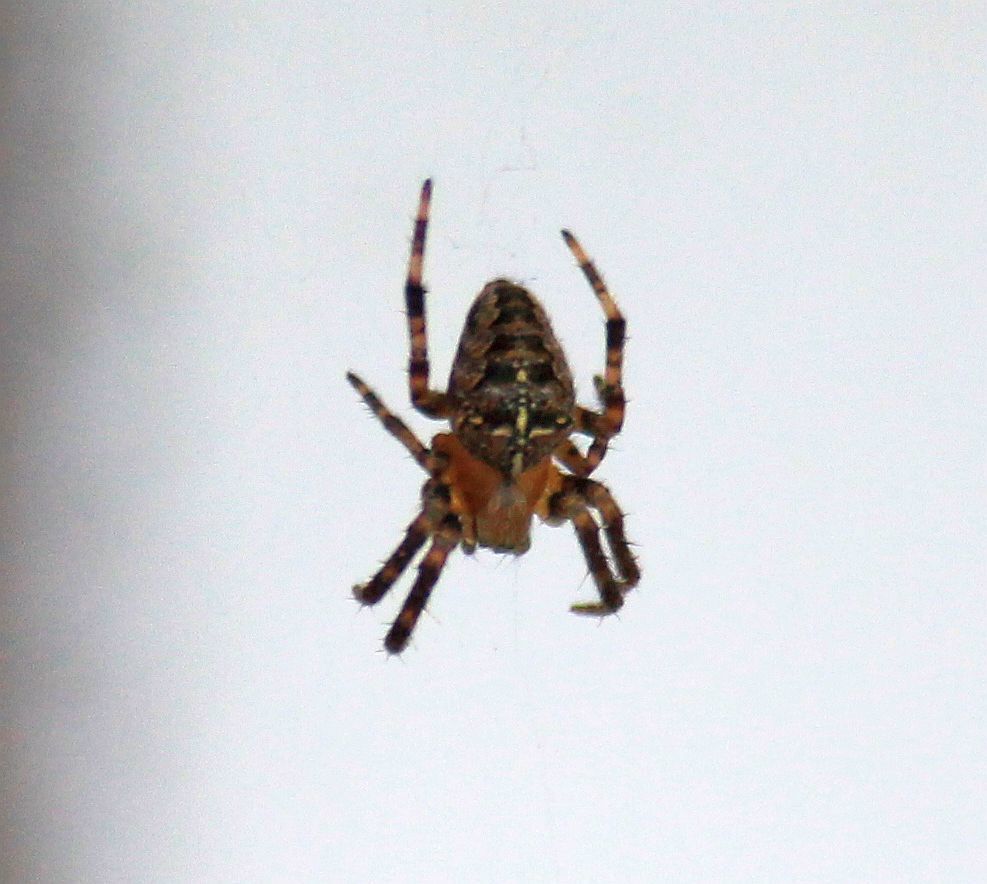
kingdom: Animalia
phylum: Arthropoda
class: Arachnida
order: Araneae
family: Araneidae
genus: Araneus
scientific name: Araneus diadematus
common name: Cross orbweaver
